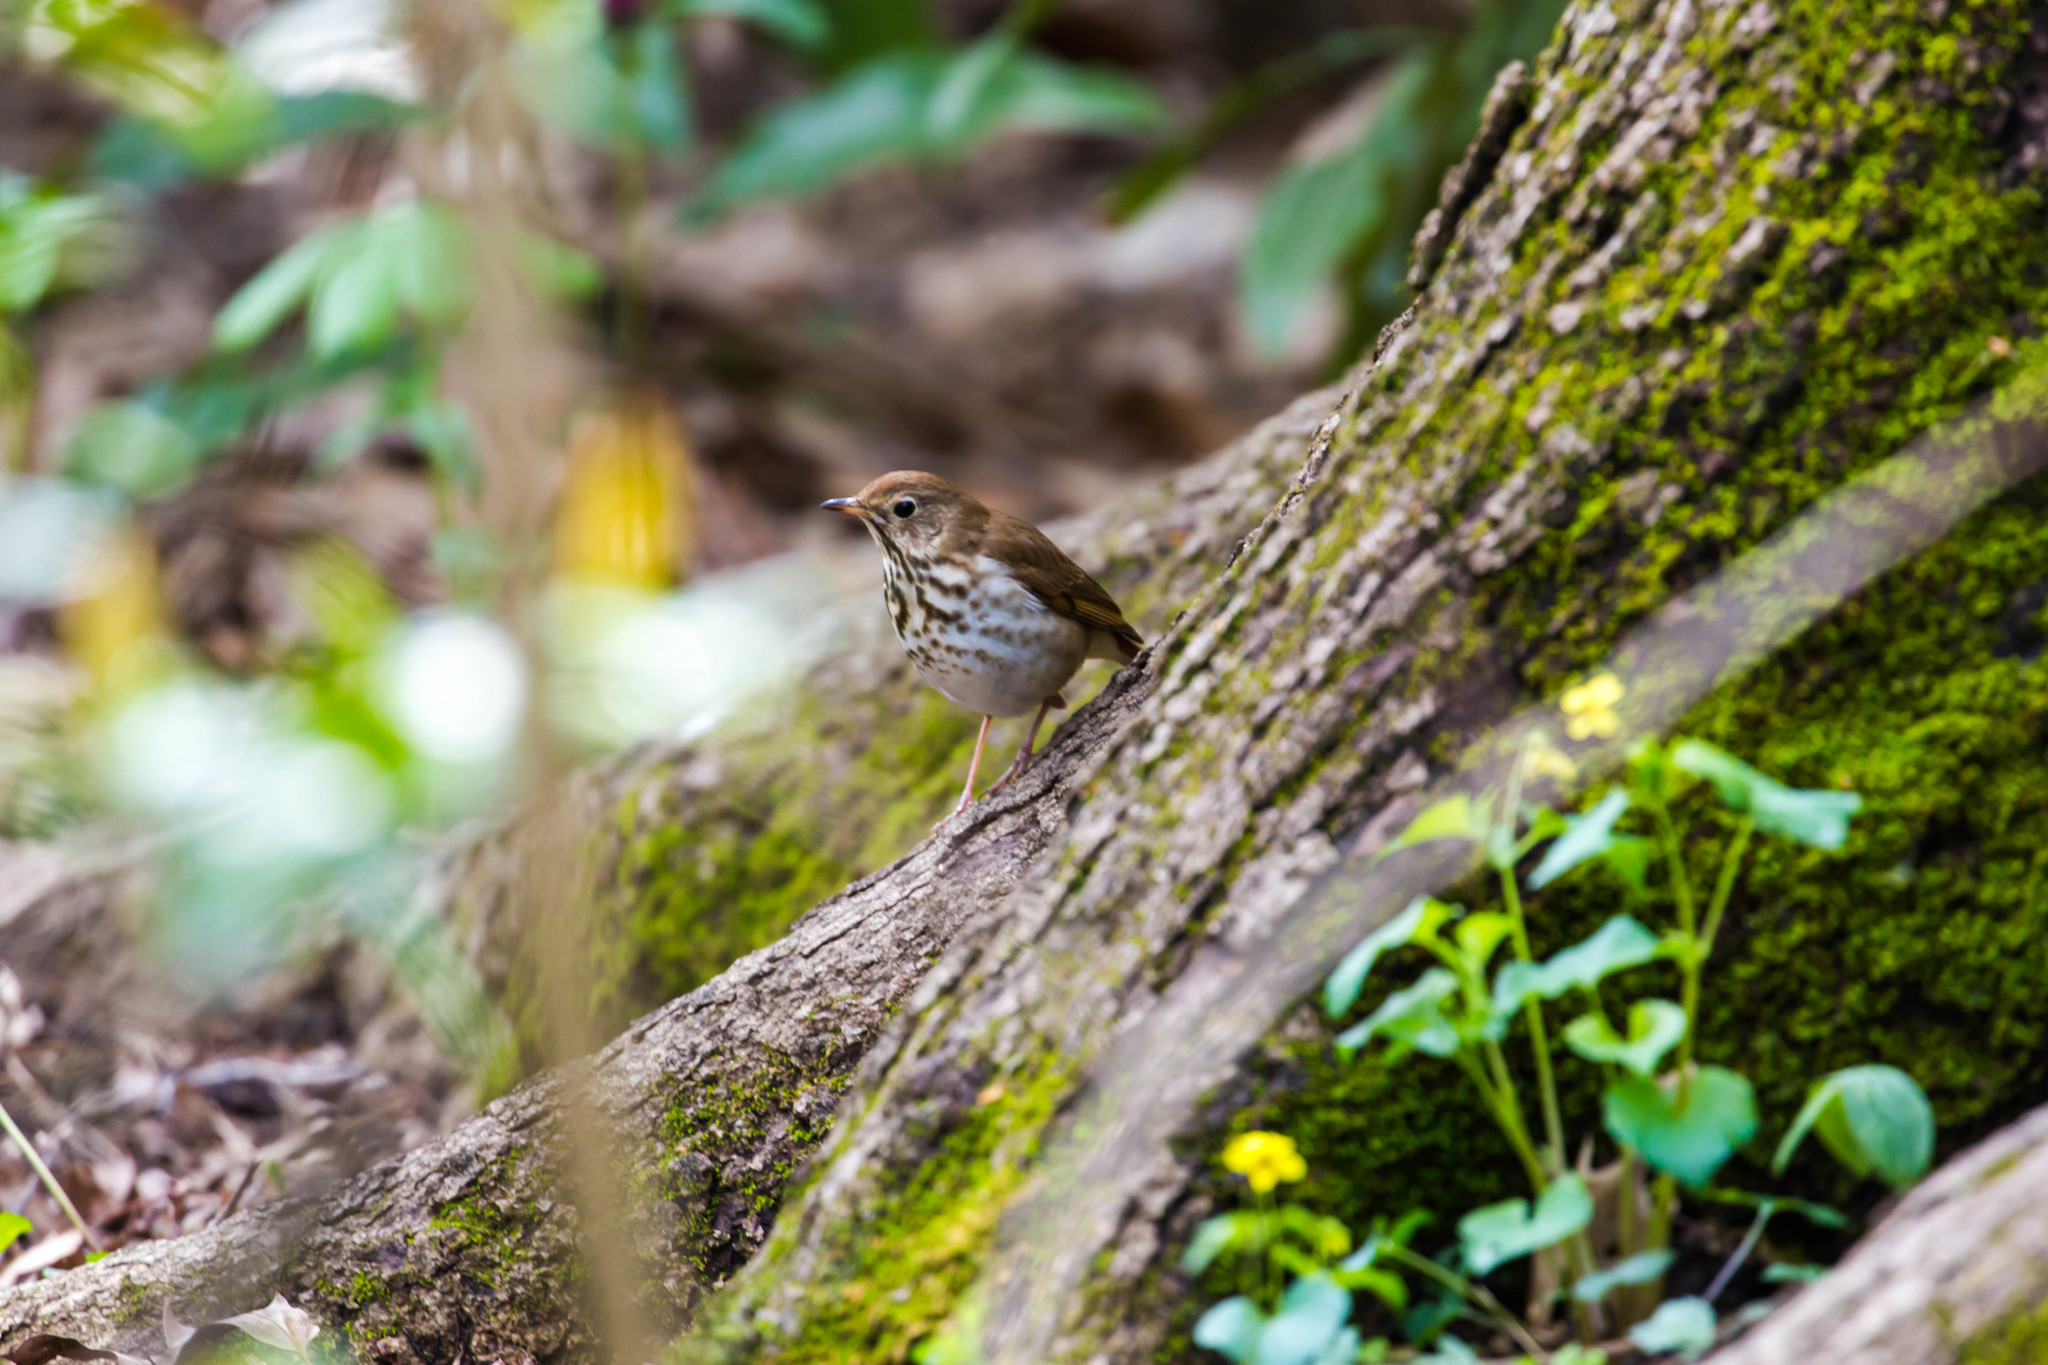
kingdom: Animalia
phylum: Chordata
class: Aves
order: Passeriformes
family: Turdidae
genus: Catharus
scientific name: Catharus guttatus
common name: Hermit thrush
